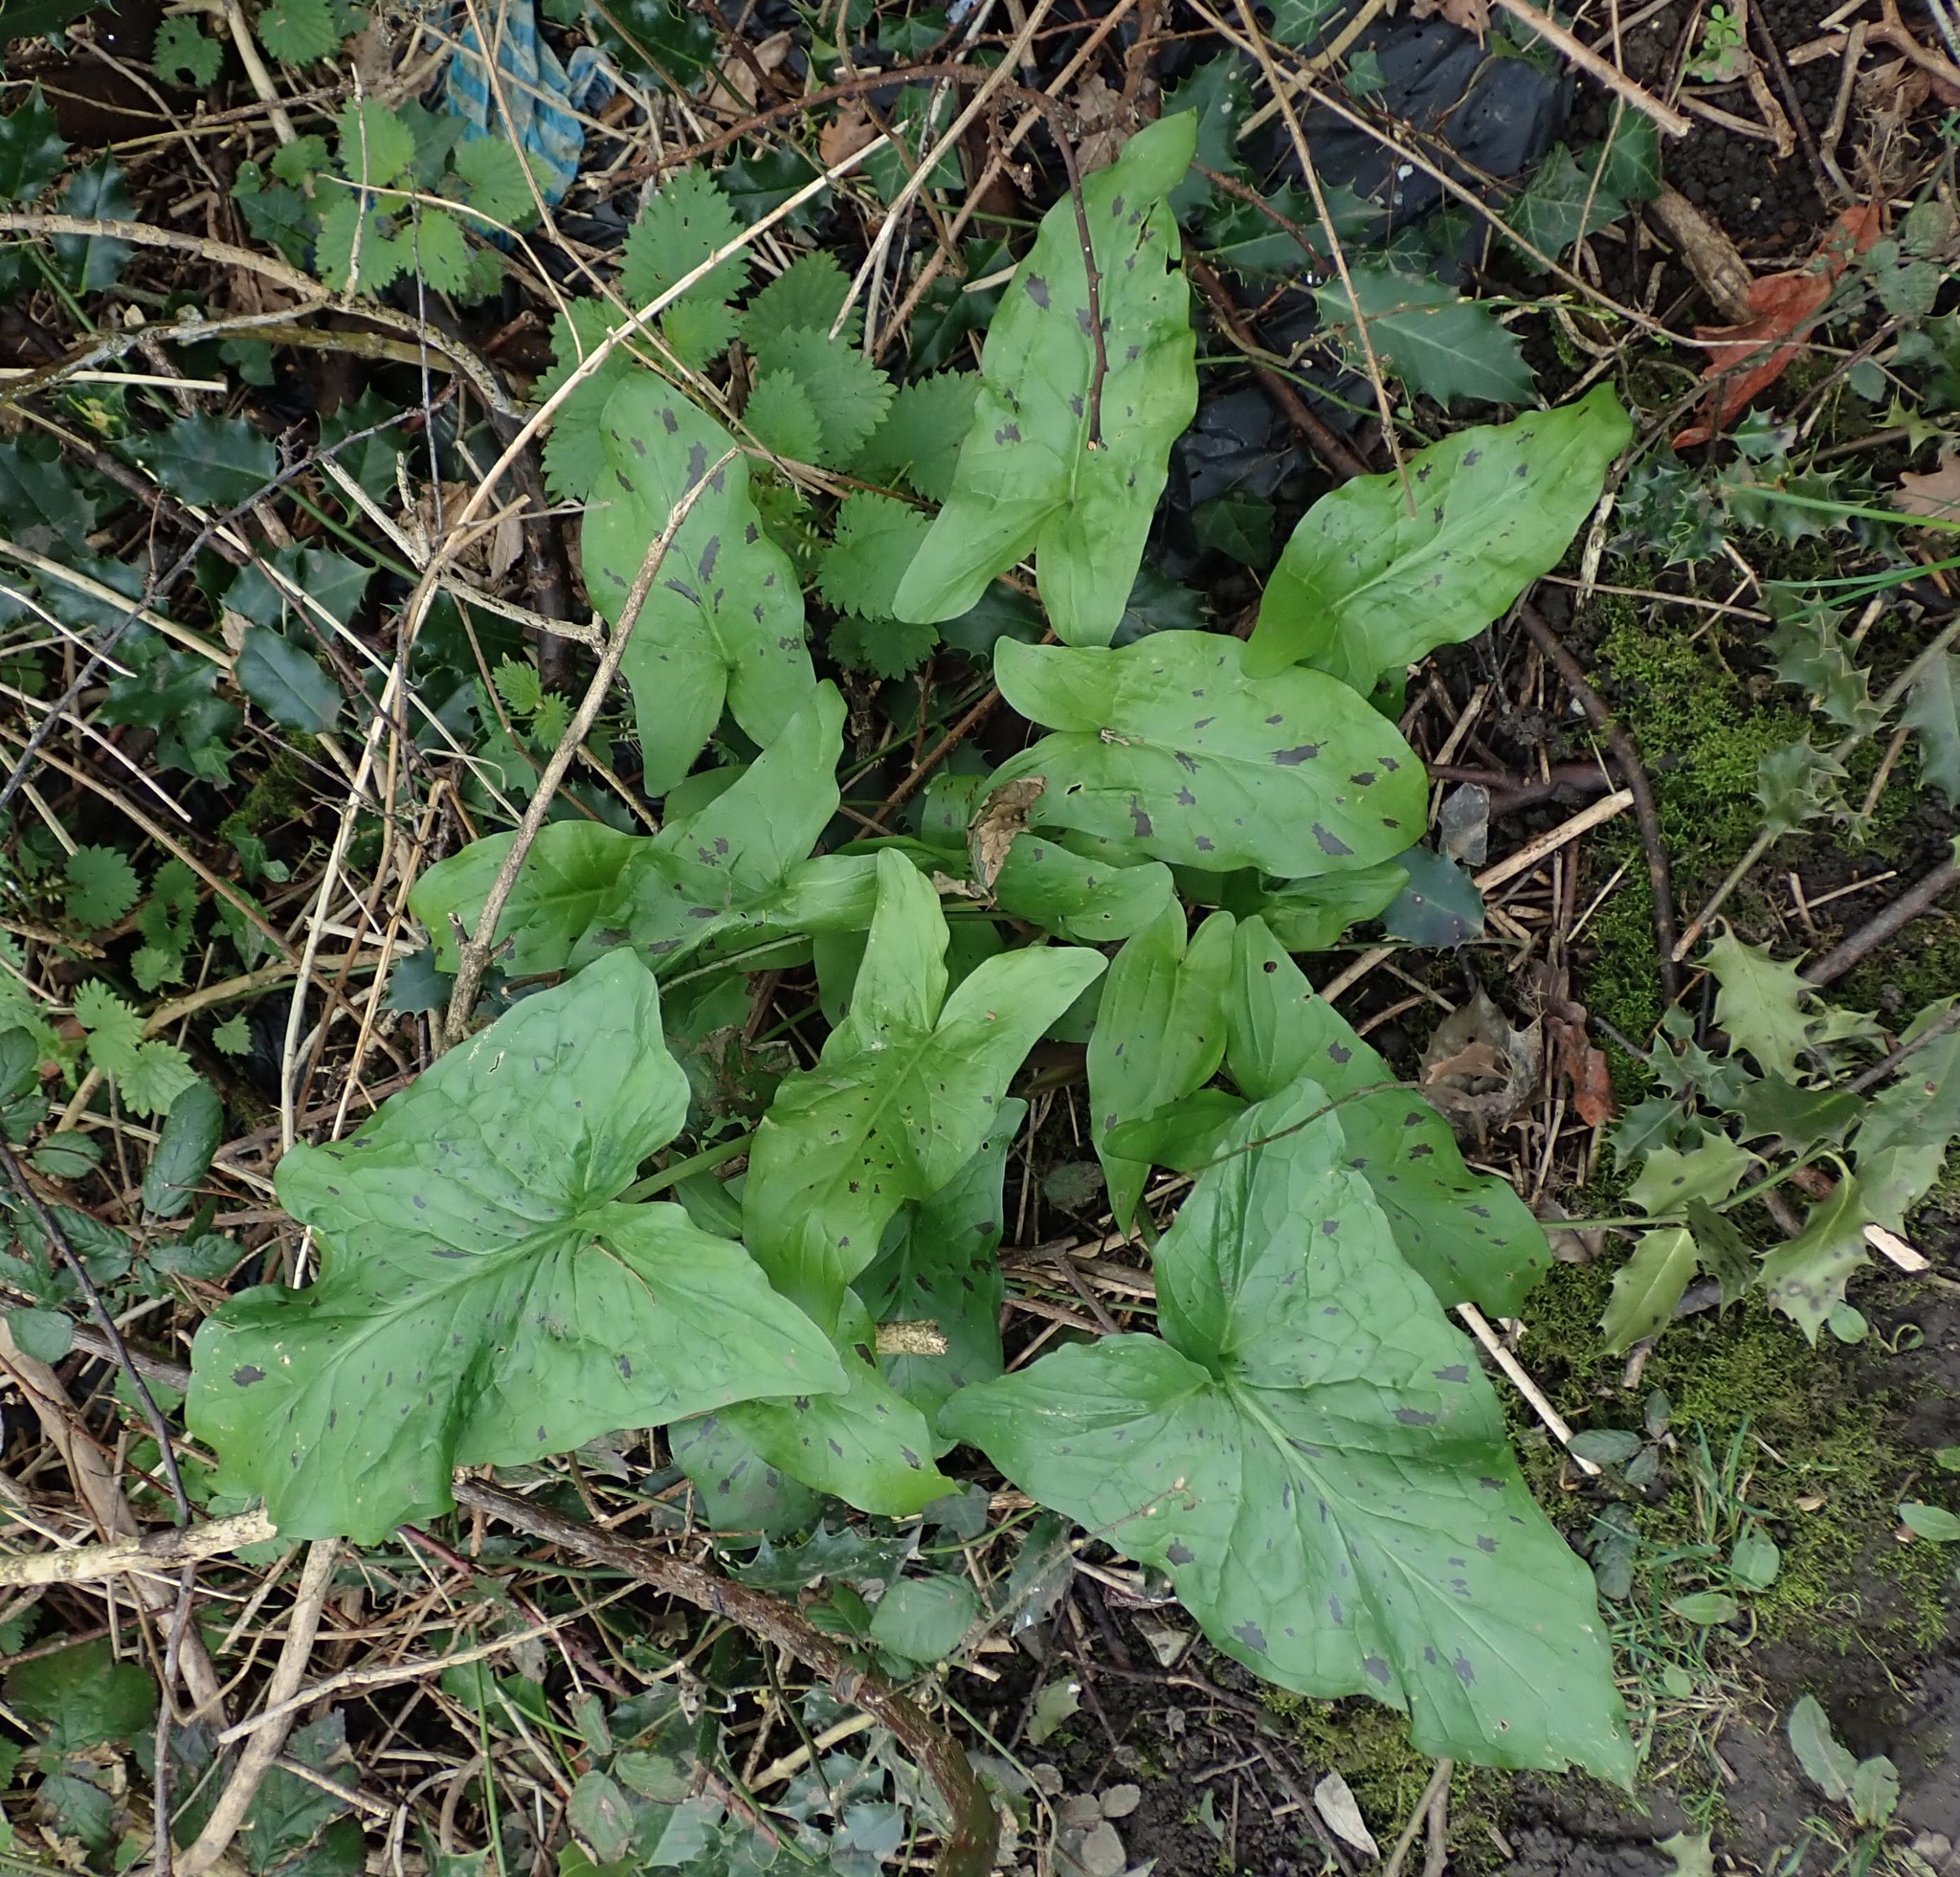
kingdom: Plantae
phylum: Tracheophyta
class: Liliopsida
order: Alismatales
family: Araceae
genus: Arum
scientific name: Arum maculatum
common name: Lords-and-ladies
